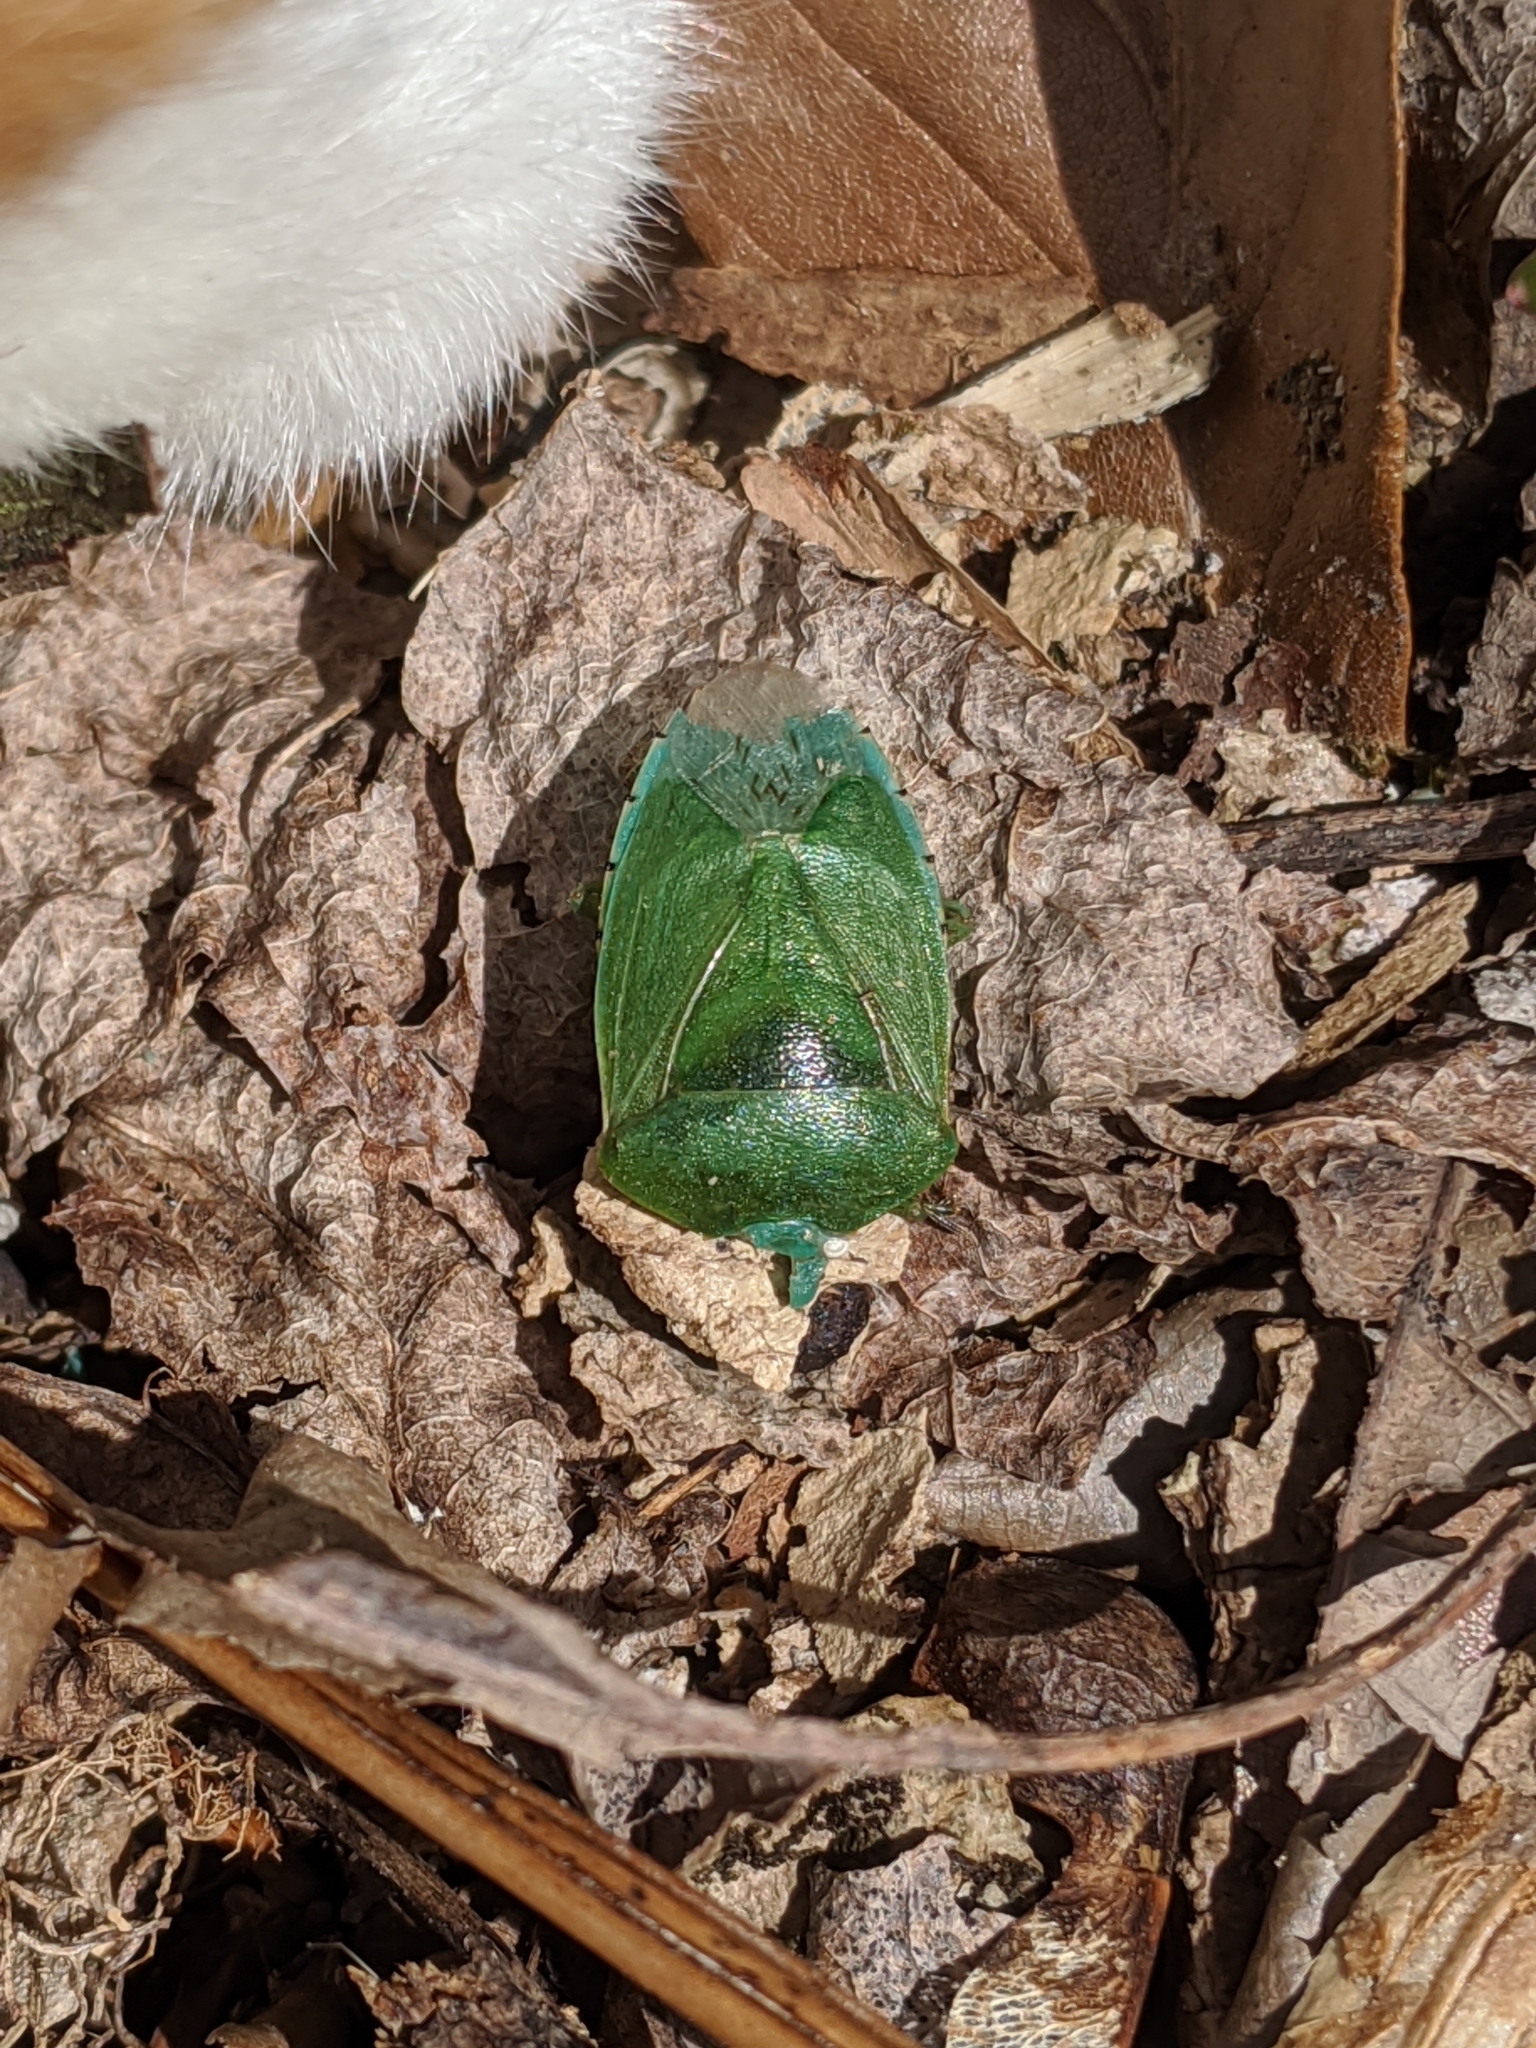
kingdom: Animalia
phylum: Arthropoda
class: Insecta
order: Hemiptera
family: Pentatomidae
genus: Chinavia
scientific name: Chinavia hilaris
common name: Green stink bug
